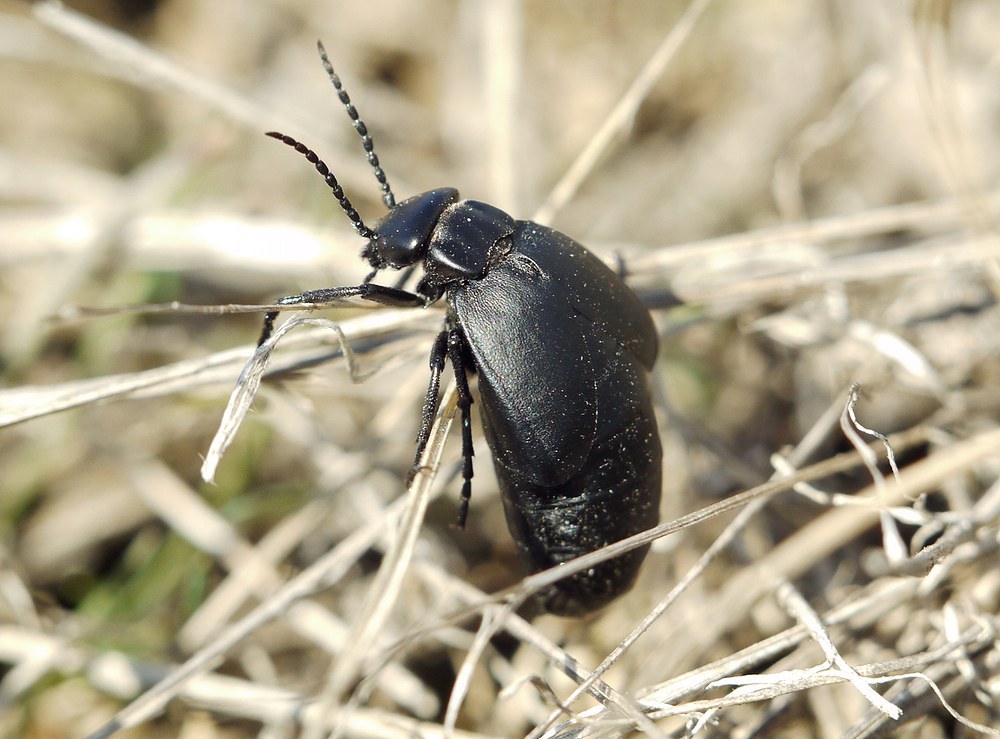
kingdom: Animalia
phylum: Arthropoda
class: Insecta
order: Coleoptera
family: Meloidae
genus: Meloe
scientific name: Meloe uralensis
